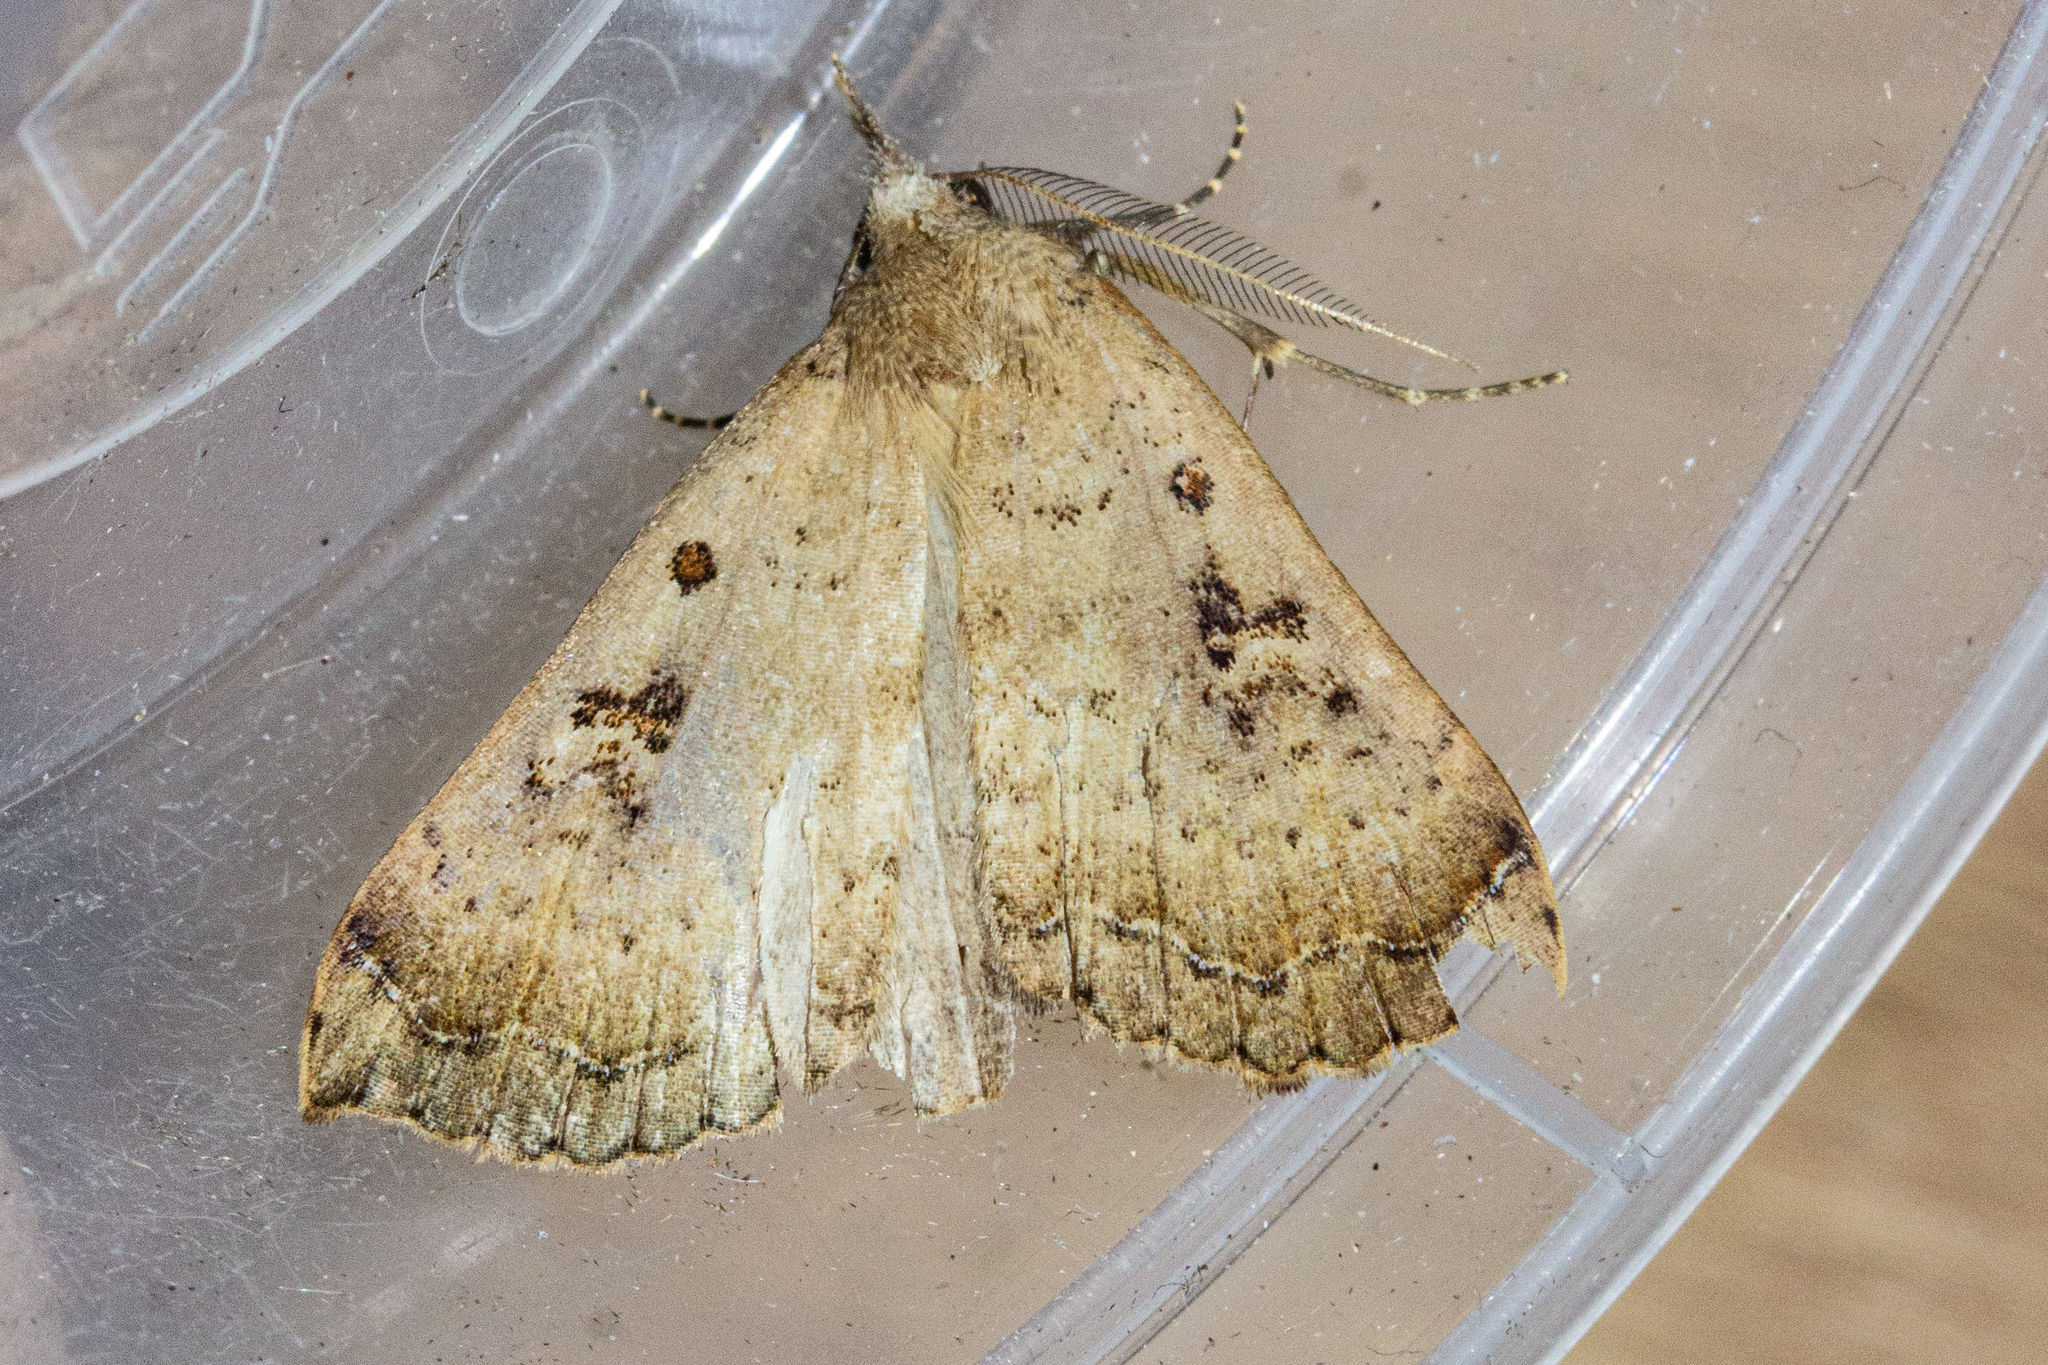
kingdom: Animalia
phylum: Arthropoda
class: Insecta
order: Lepidoptera
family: Erebidae
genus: Rhapsa
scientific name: Rhapsa scotosialis
